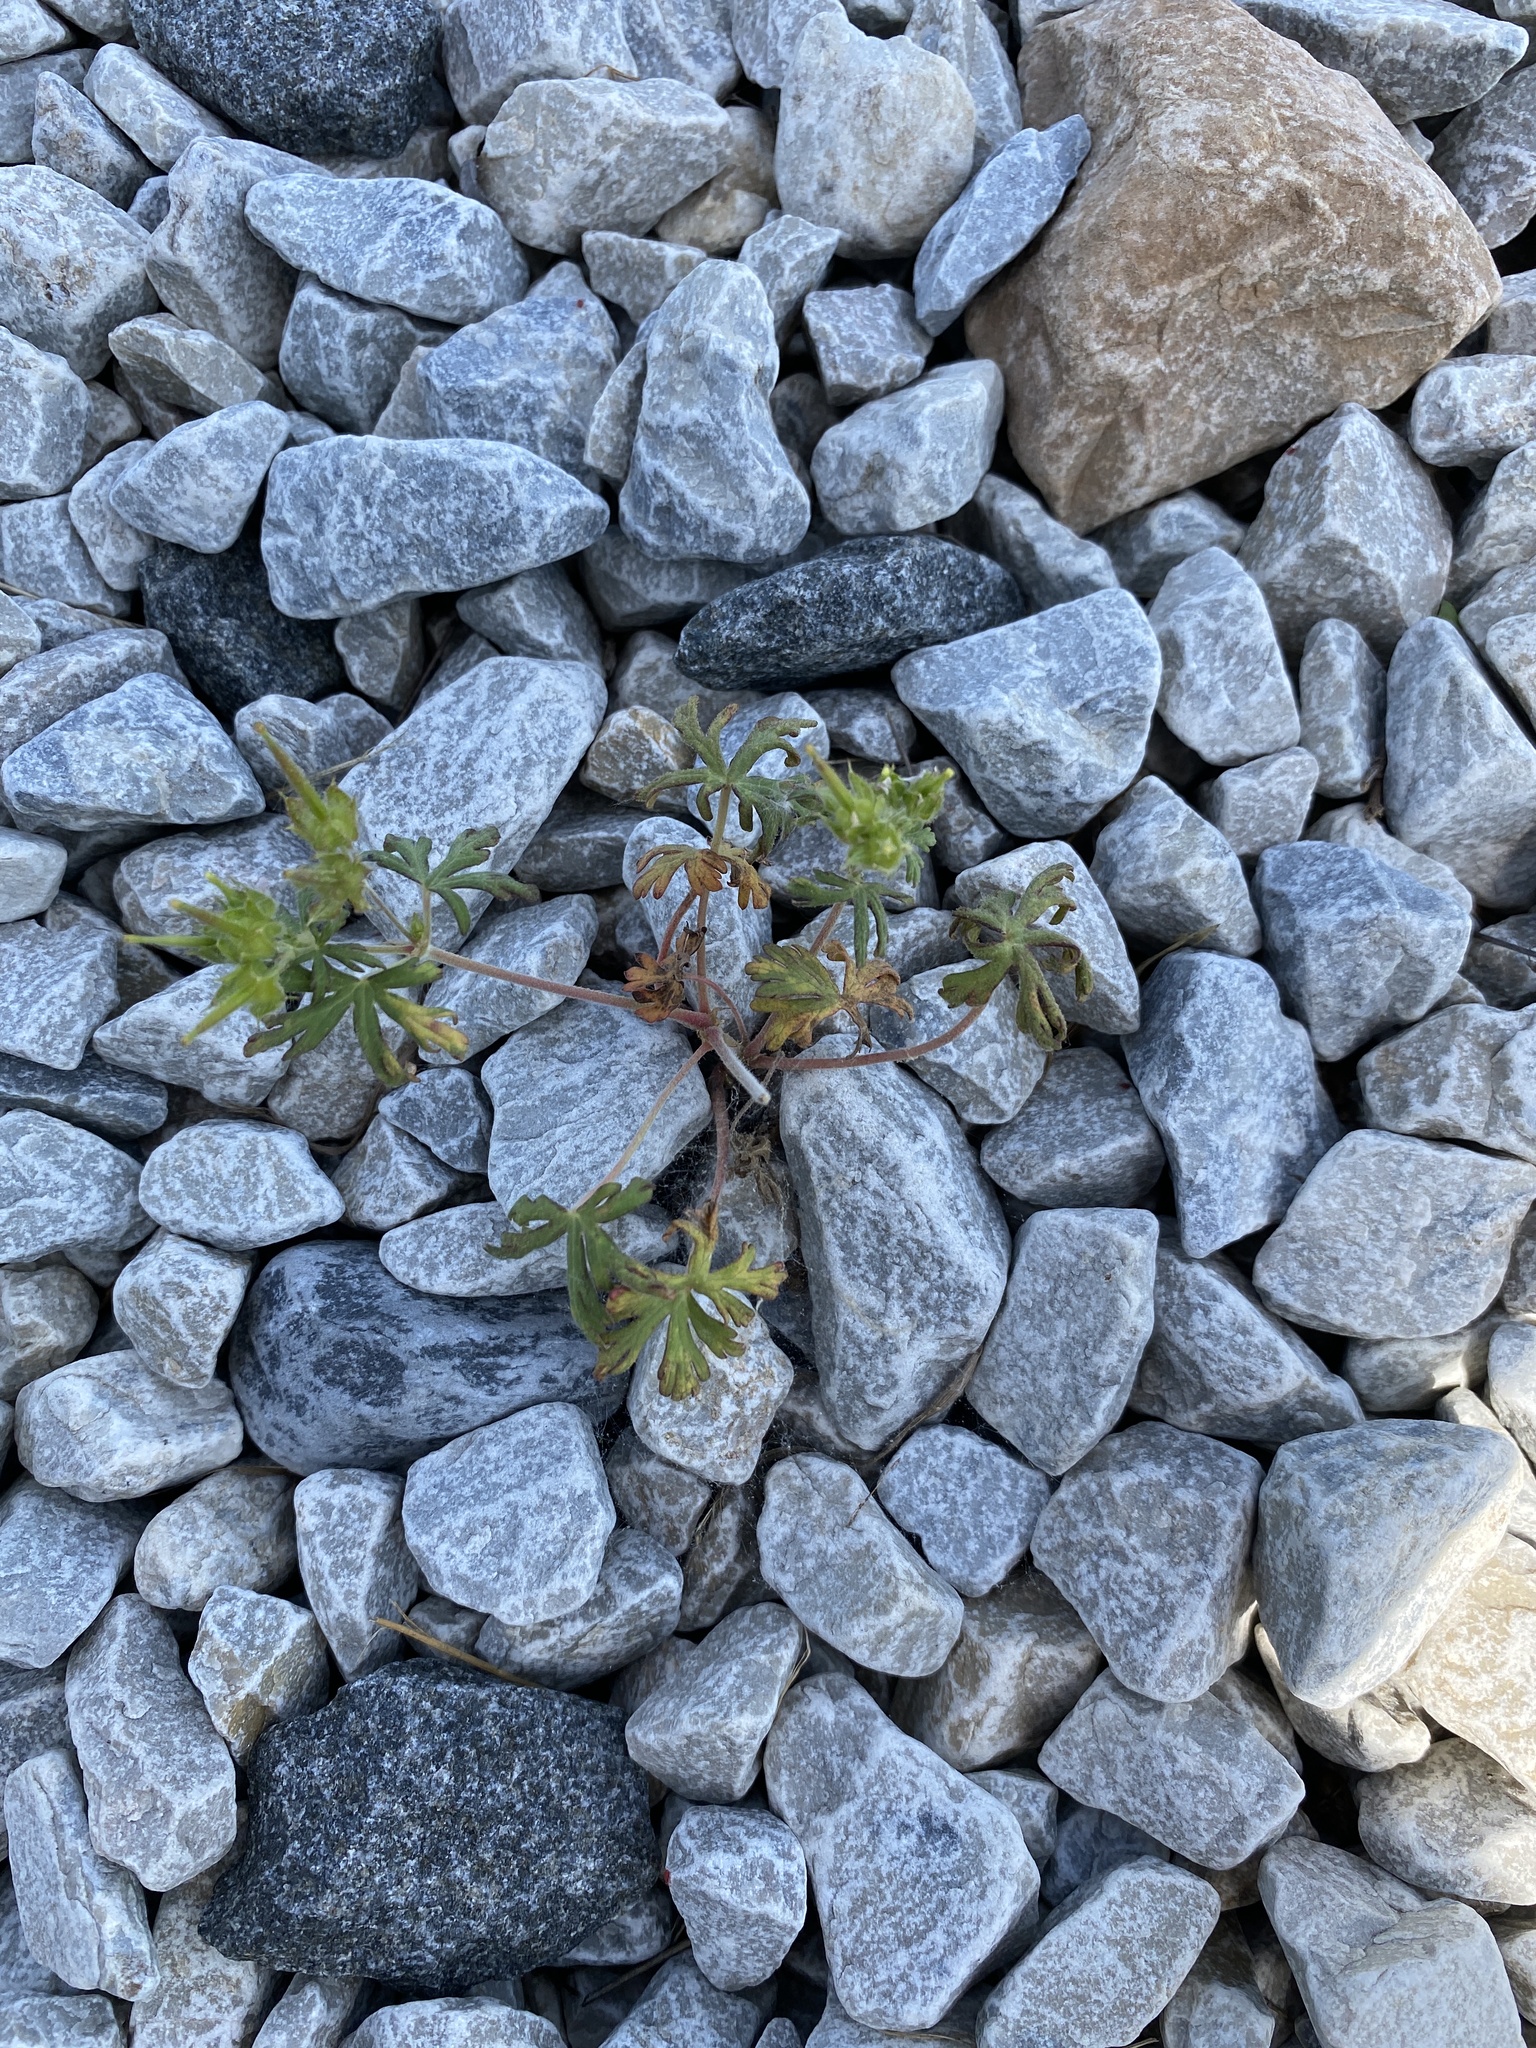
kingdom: Plantae
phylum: Tracheophyta
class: Magnoliopsida
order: Geraniales
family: Geraniaceae
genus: Geranium
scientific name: Geranium carolinianum
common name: Carolina crane's-bill
